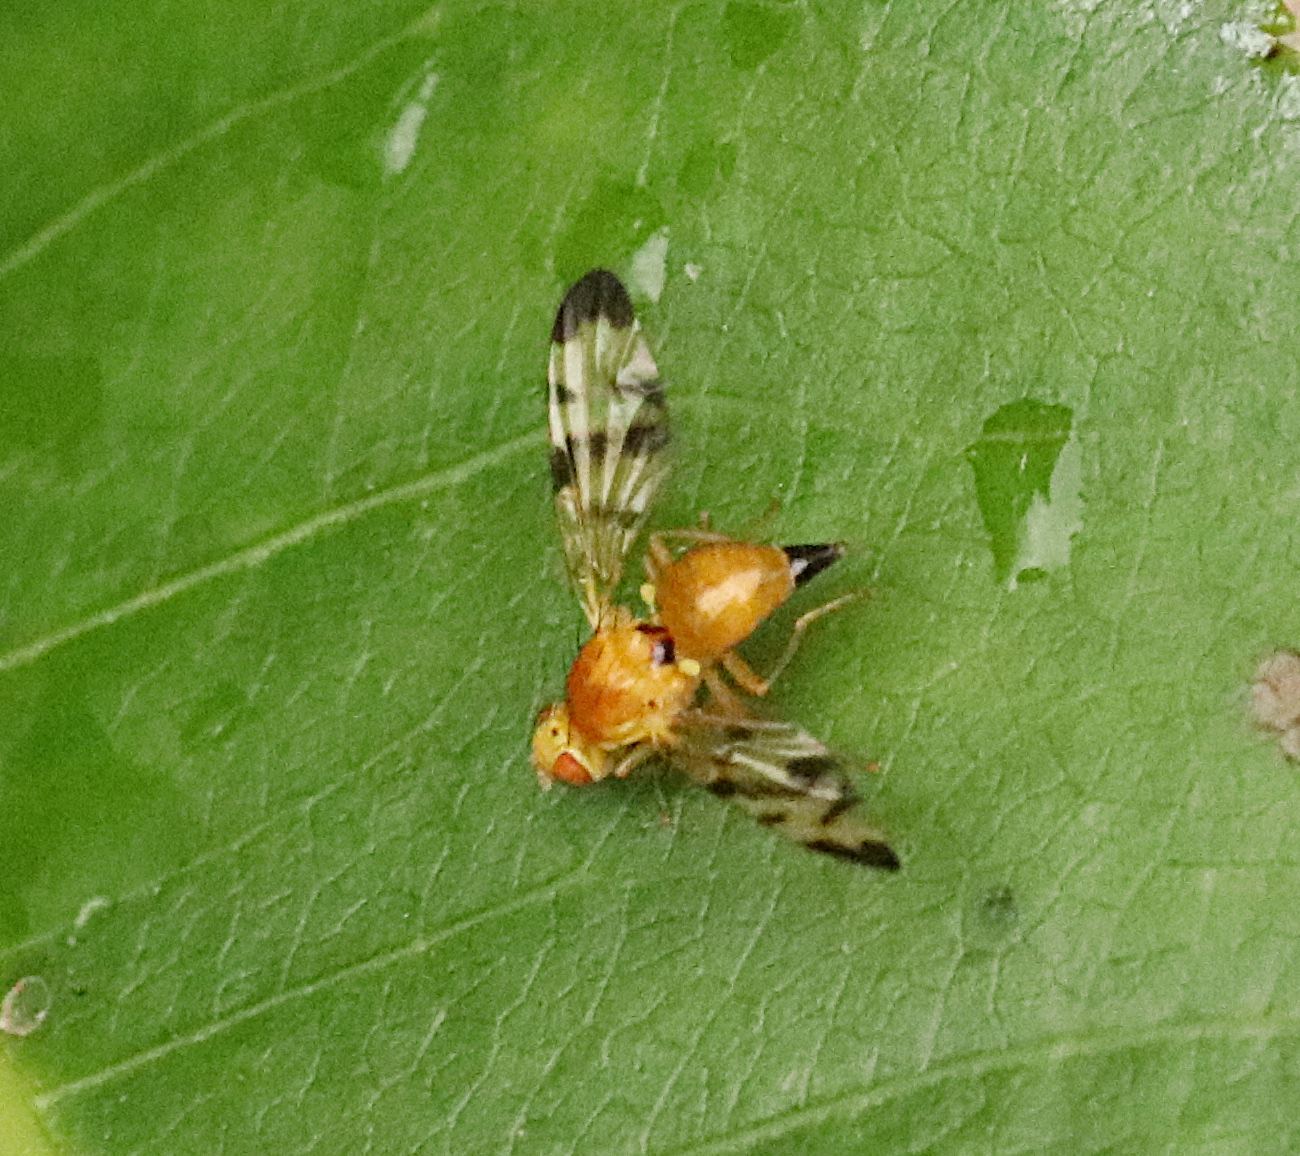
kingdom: Animalia
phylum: Arthropoda
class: Insecta
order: Diptera
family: Tephritidae
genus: Trypeta
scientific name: Trypeta immaculata
